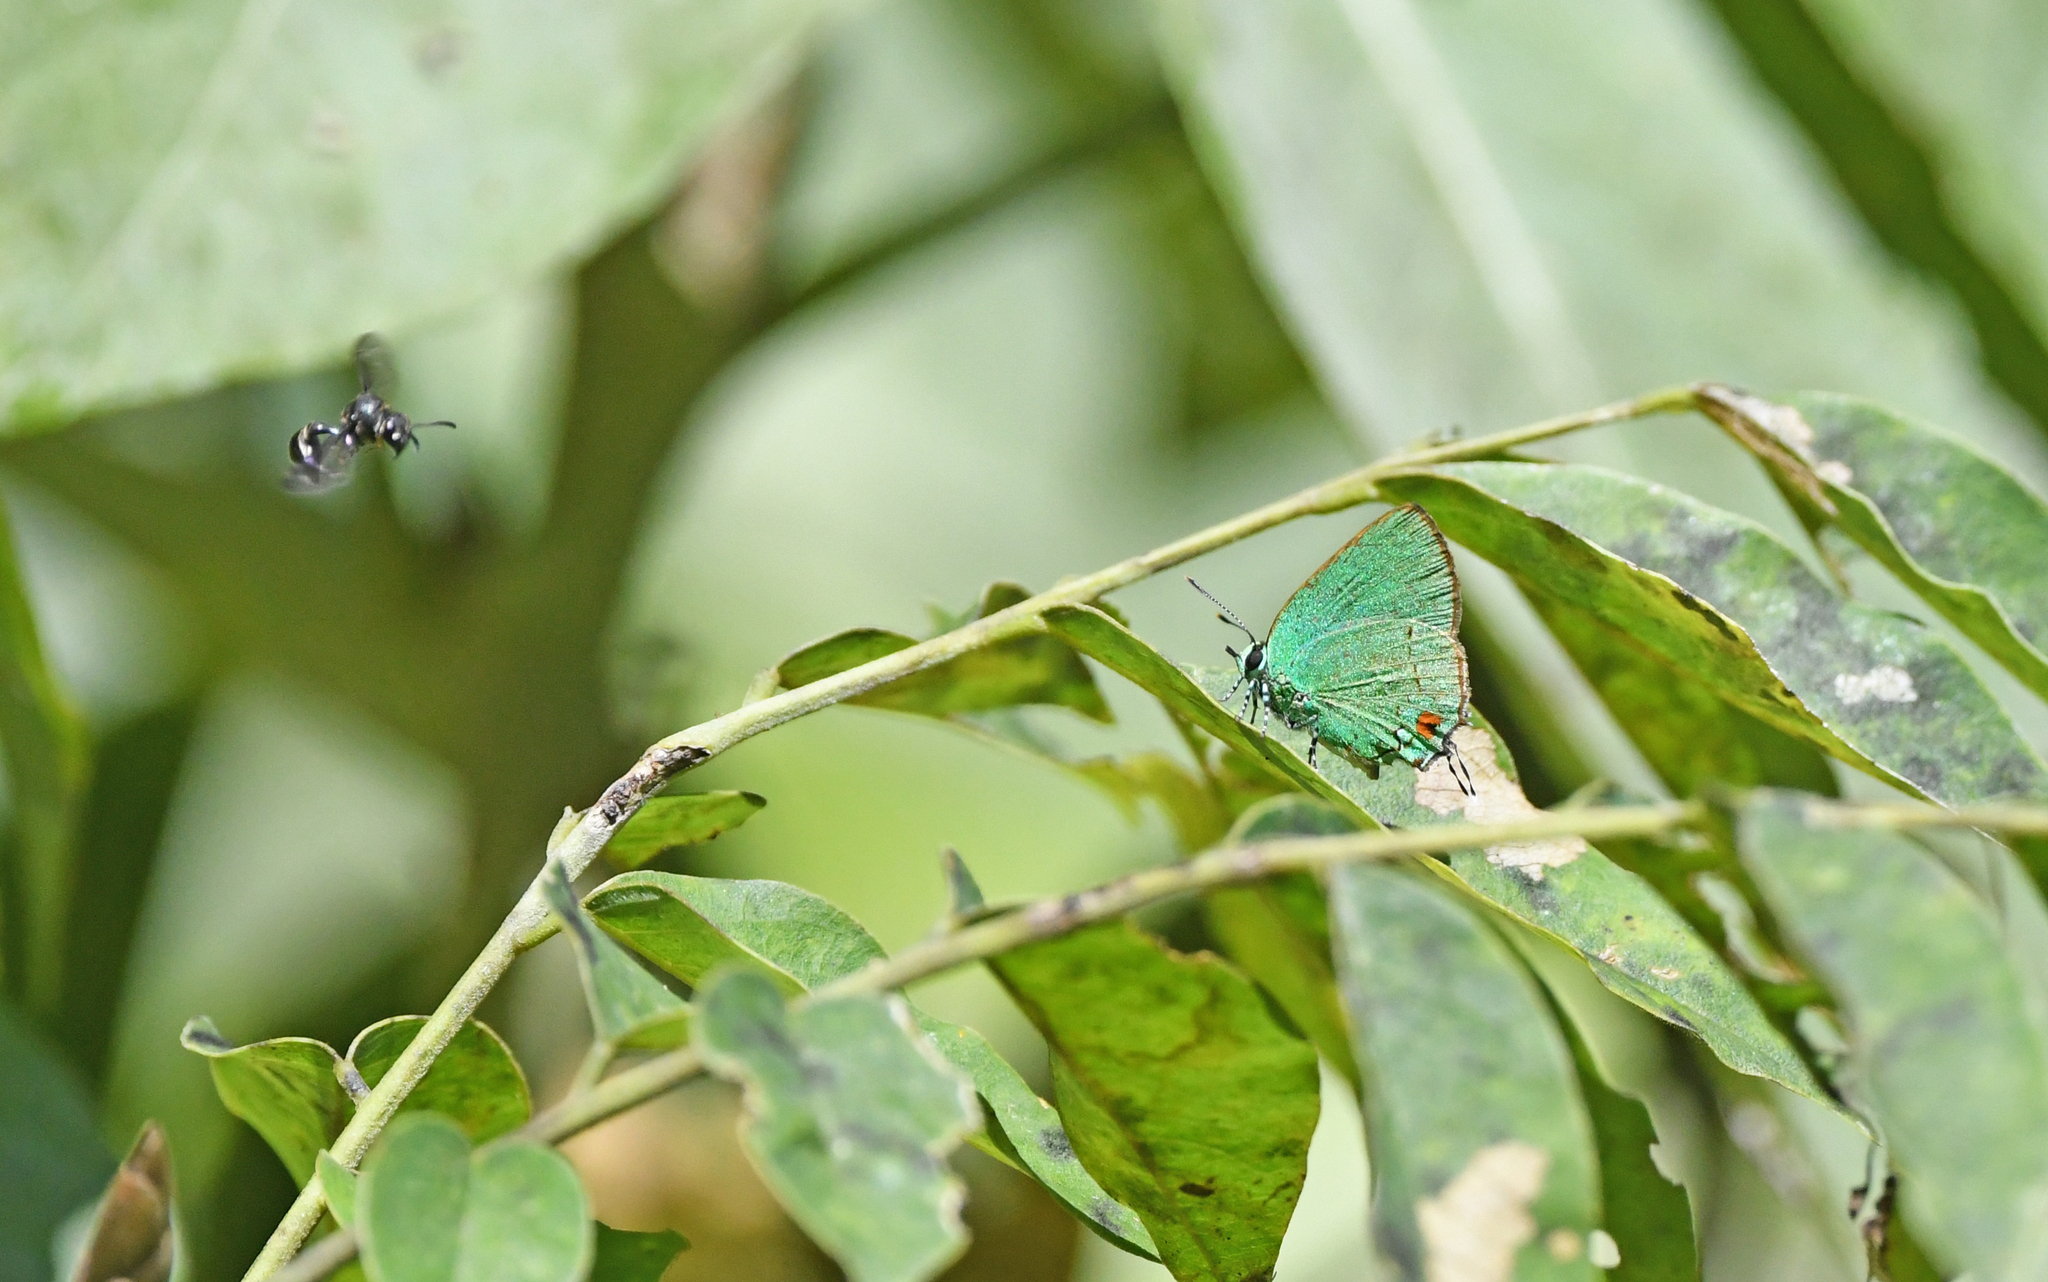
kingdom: Animalia
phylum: Arthropoda
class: Insecta
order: Lepidoptera
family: Lycaenidae
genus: Chalybs
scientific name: Chalybs janias
